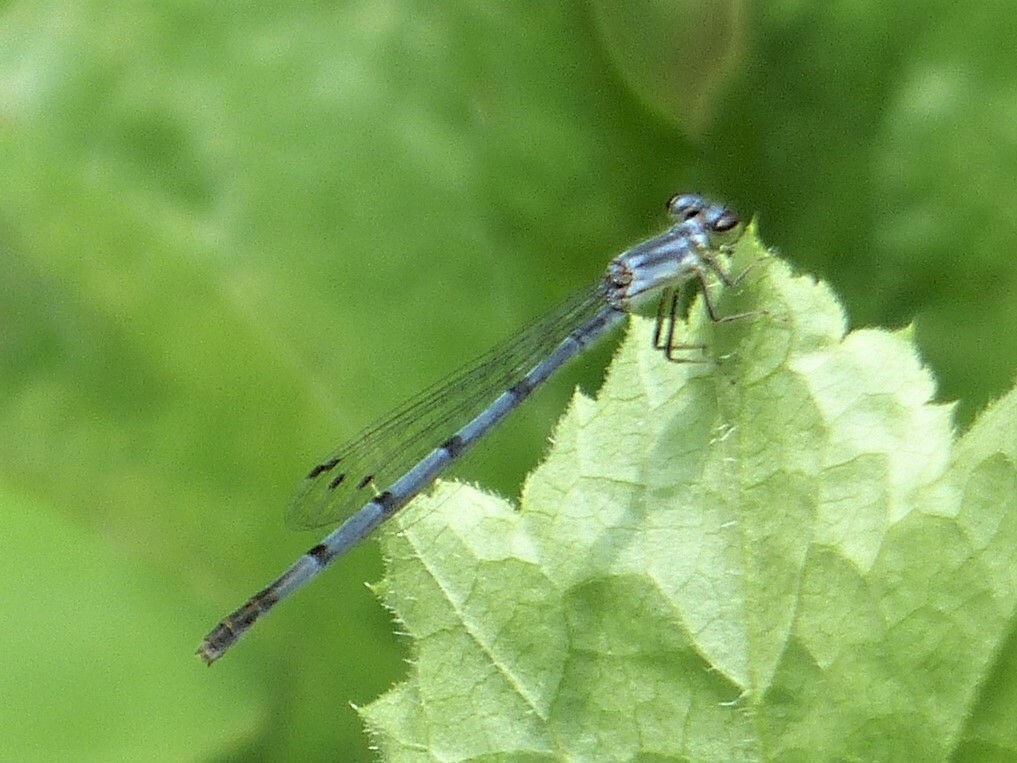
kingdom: Animalia
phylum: Arthropoda
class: Insecta
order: Odonata
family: Coenagrionidae
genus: Ischnura
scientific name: Ischnura posita
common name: Fragile forktail
